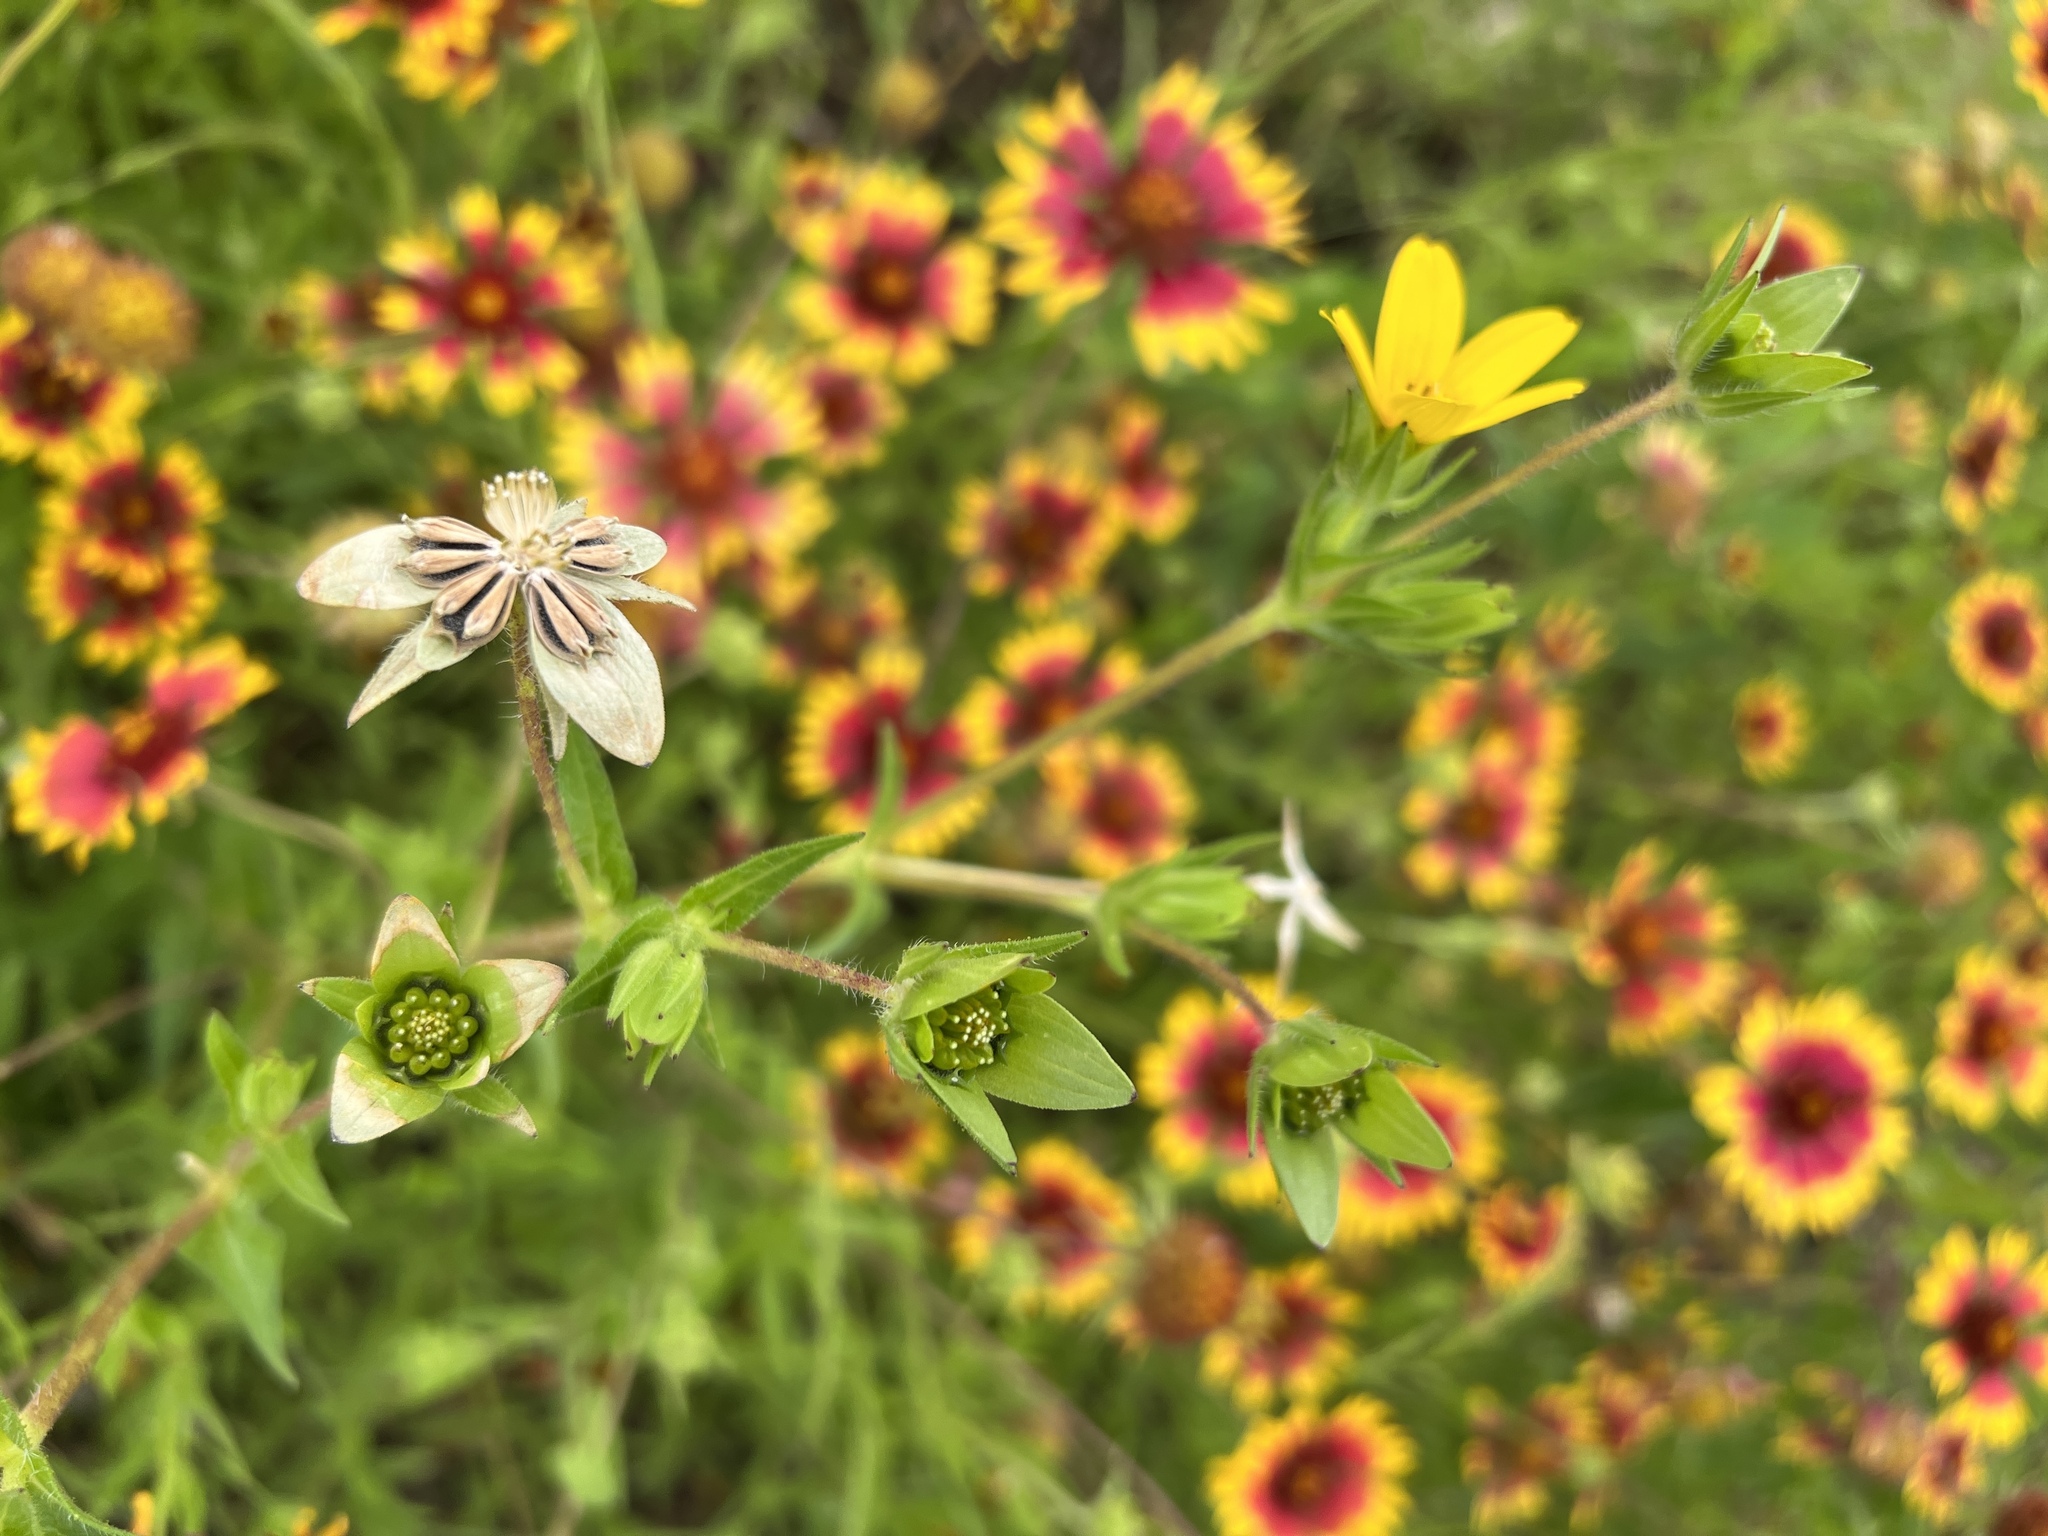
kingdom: Plantae
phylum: Tracheophyta
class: Magnoliopsida
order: Asterales
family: Asteraceae
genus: Lindheimera
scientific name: Lindheimera texana
